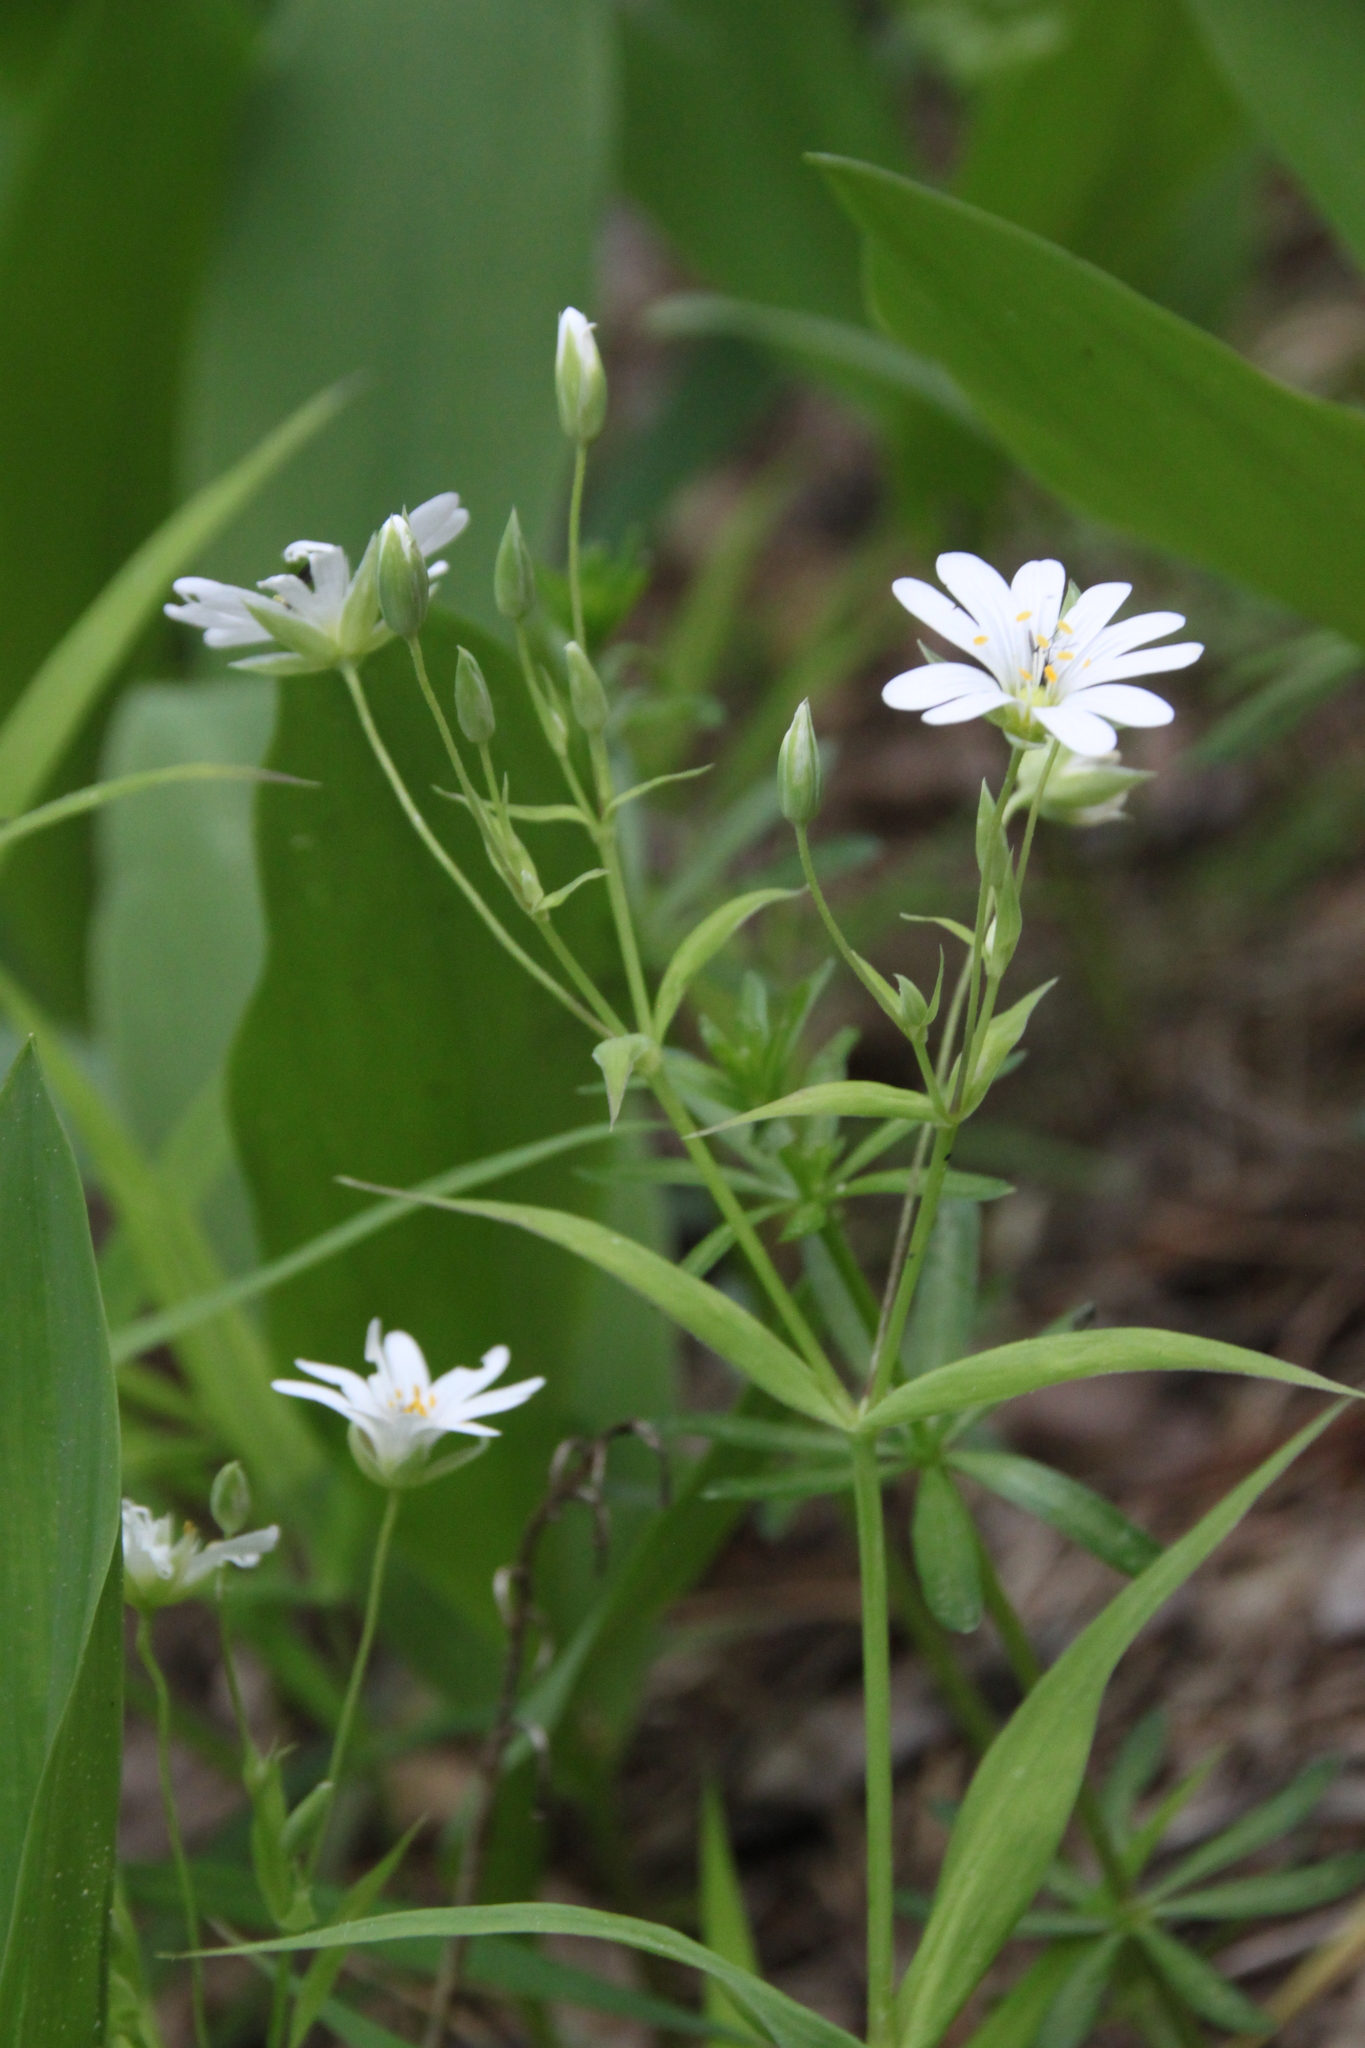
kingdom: Plantae
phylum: Tracheophyta
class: Magnoliopsida
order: Caryophyllales
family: Caryophyllaceae
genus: Rabelera
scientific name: Rabelera holostea
